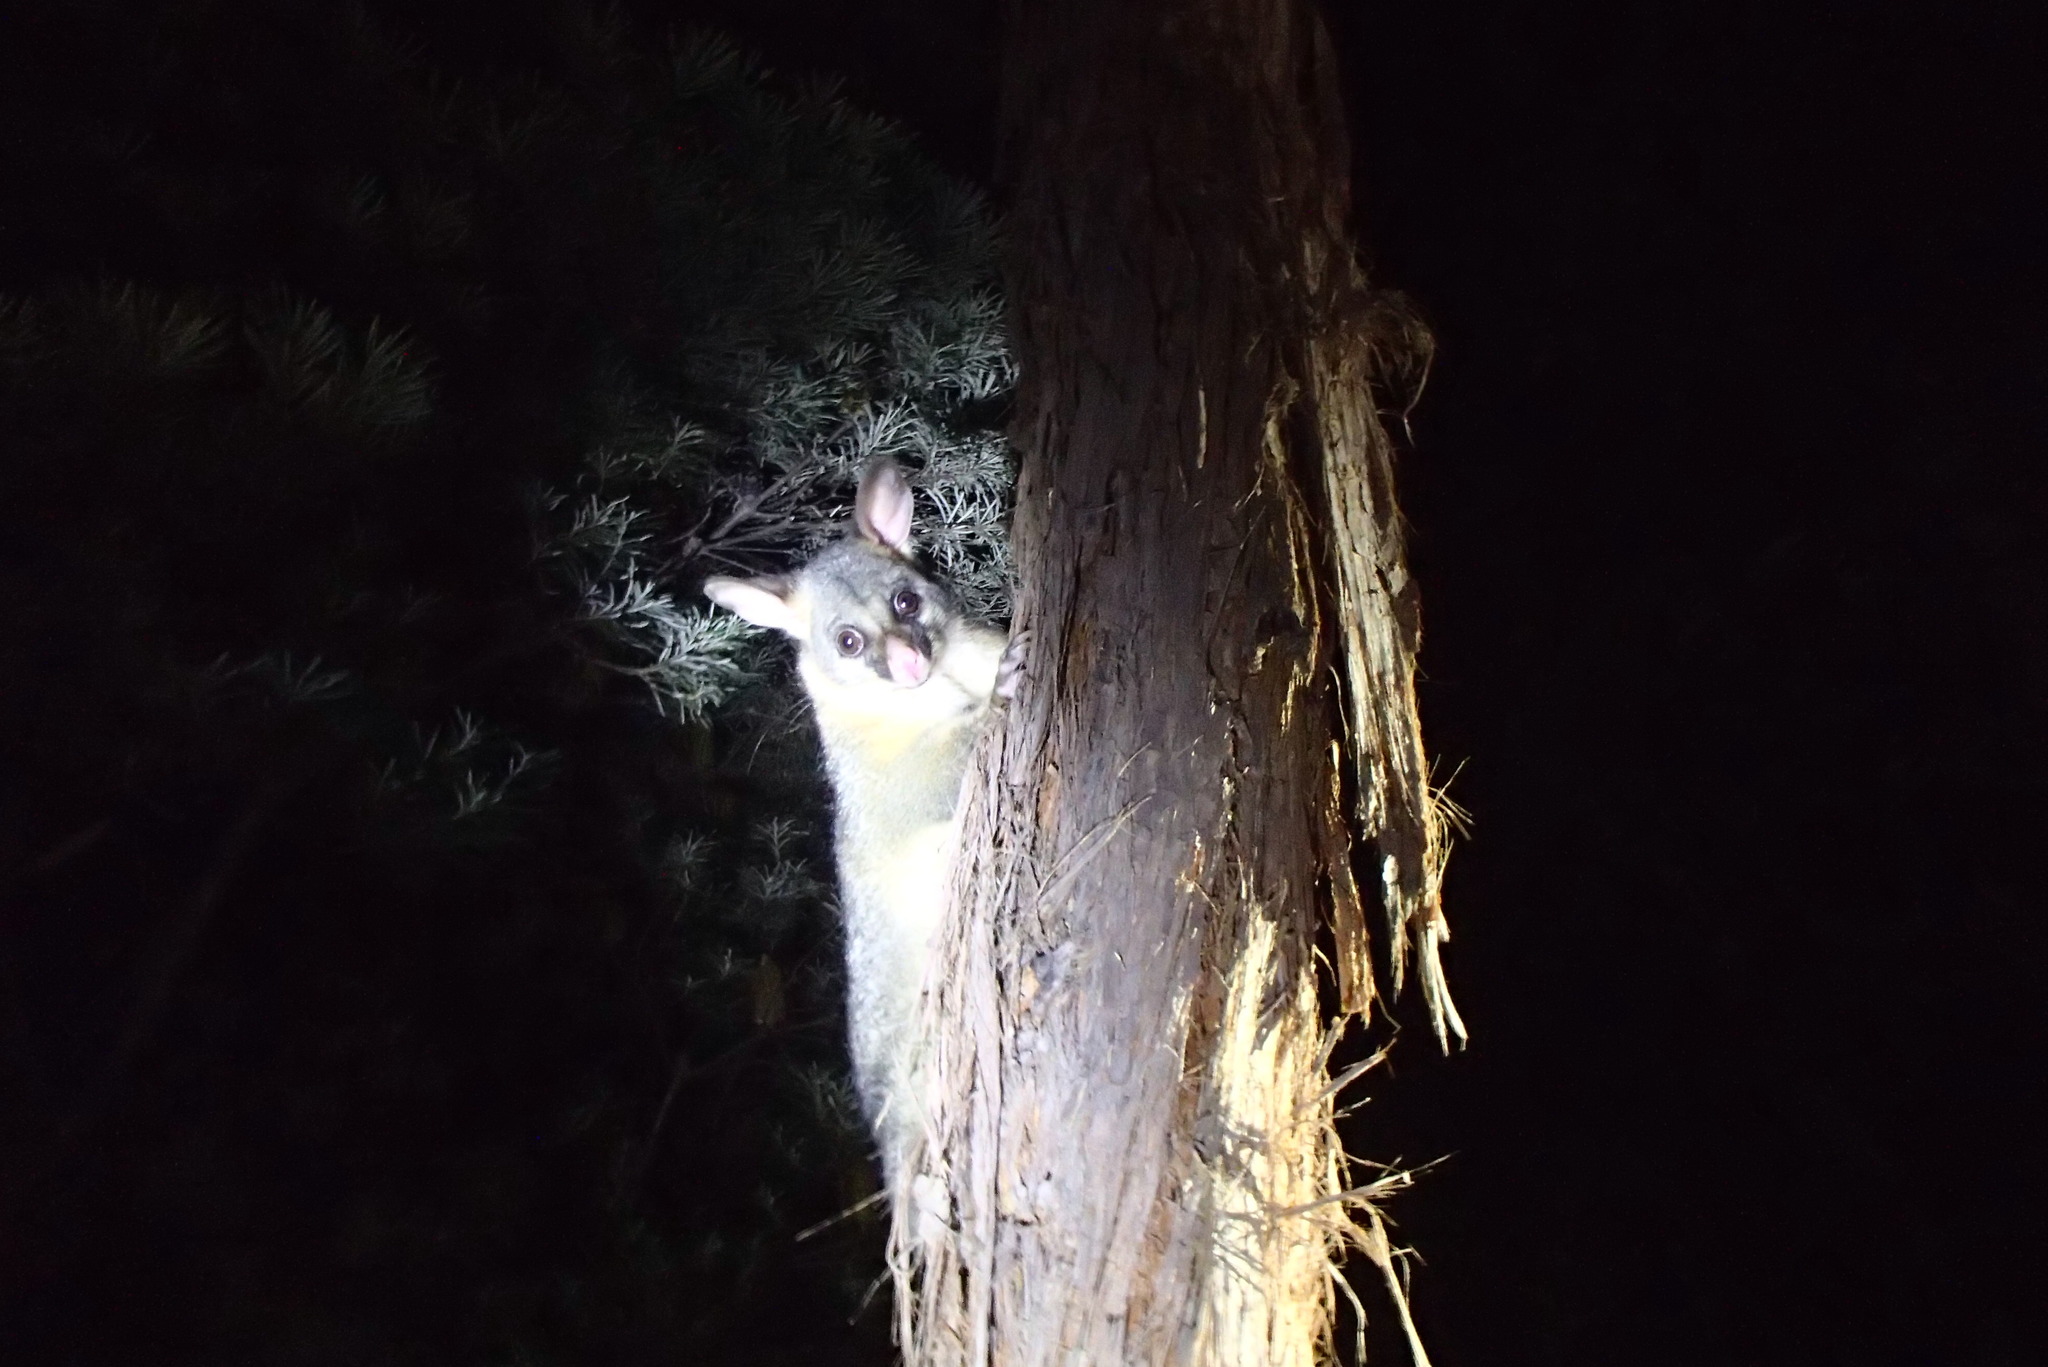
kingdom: Animalia
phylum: Chordata
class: Mammalia
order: Diprotodontia
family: Phalangeridae
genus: Trichosurus
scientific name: Trichosurus vulpecula
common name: Common brushtail
